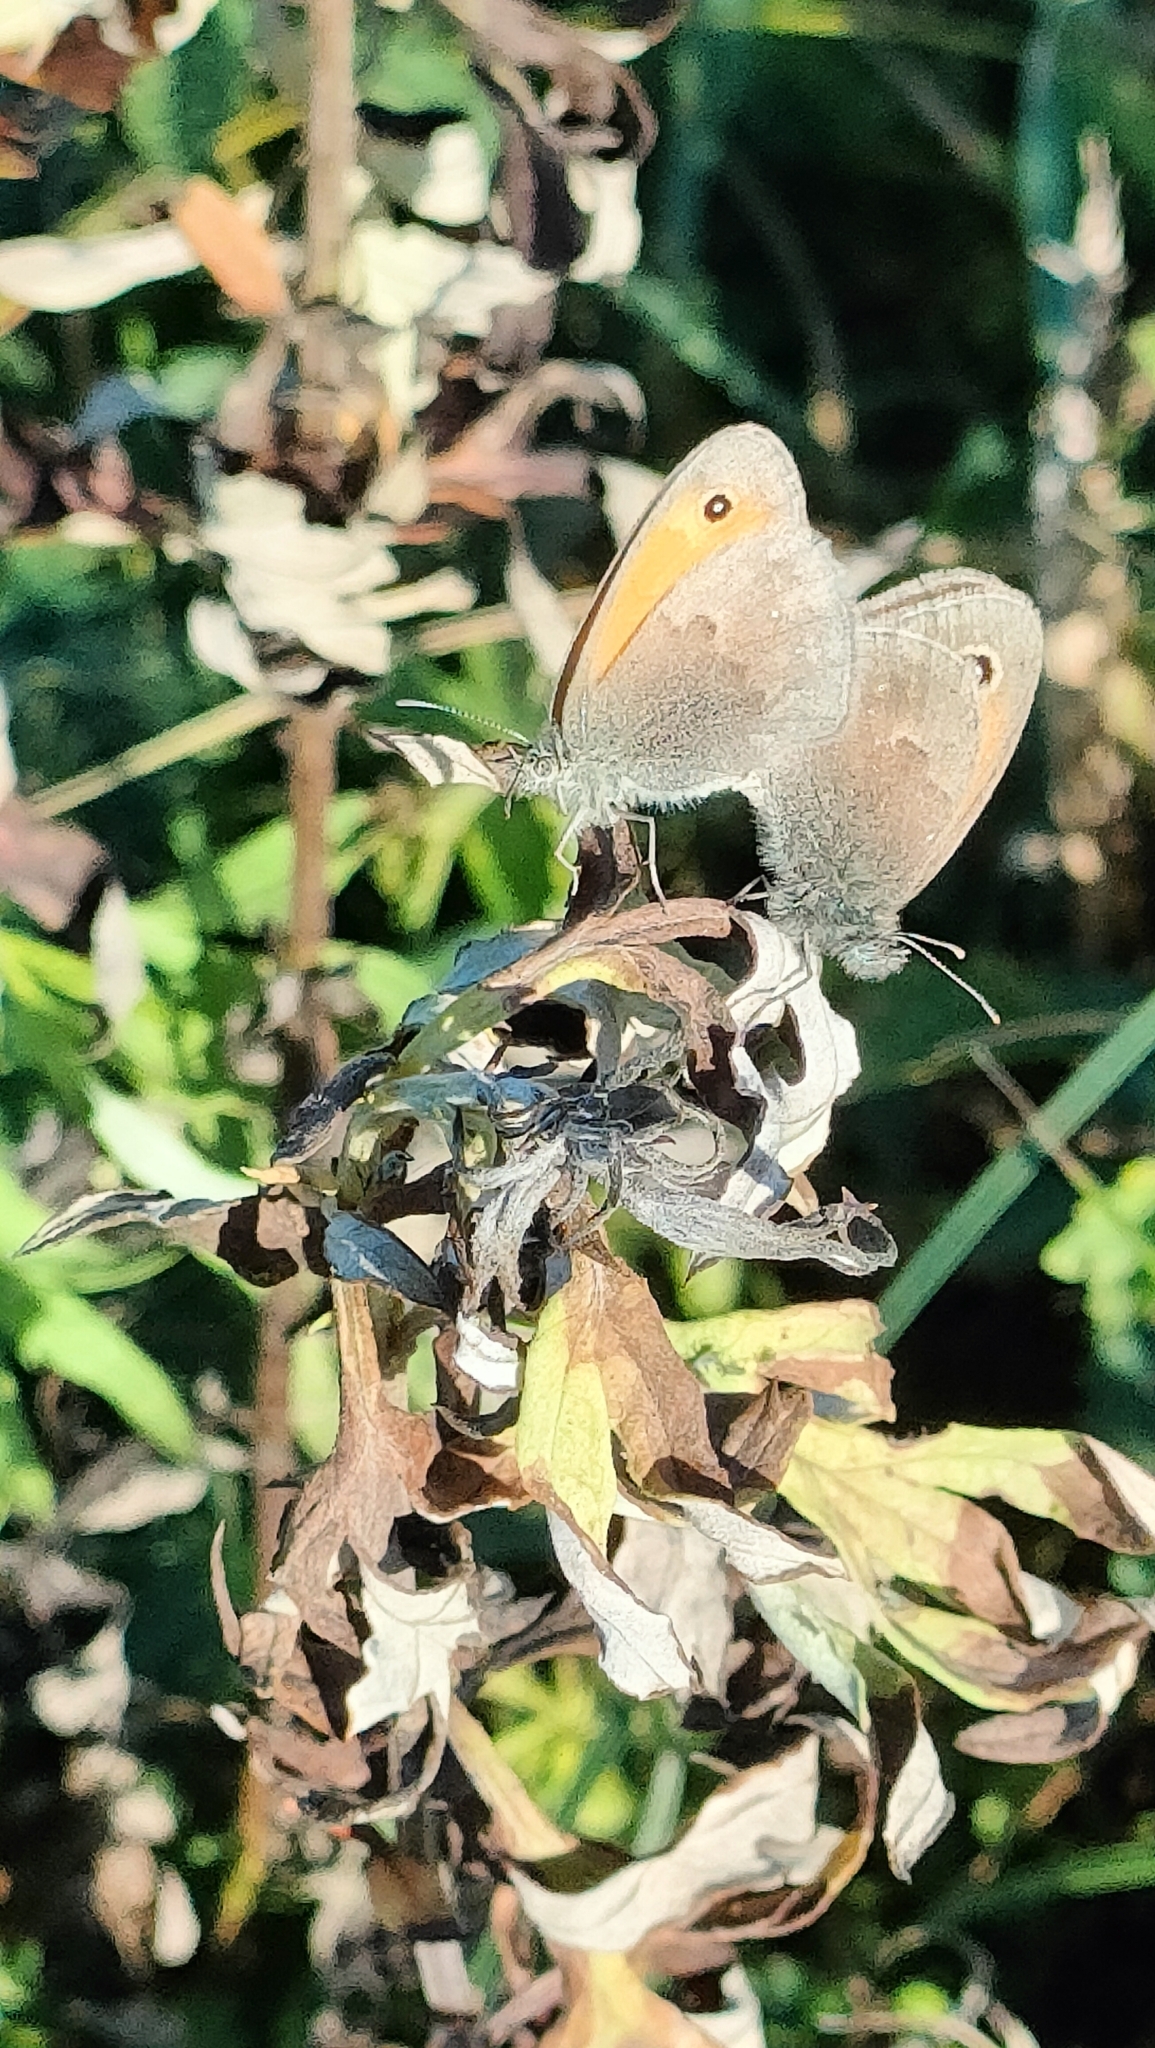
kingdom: Animalia
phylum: Arthropoda
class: Insecta
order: Lepidoptera
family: Nymphalidae
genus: Coenonympha
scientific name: Coenonympha pamphilus
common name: Small heath
